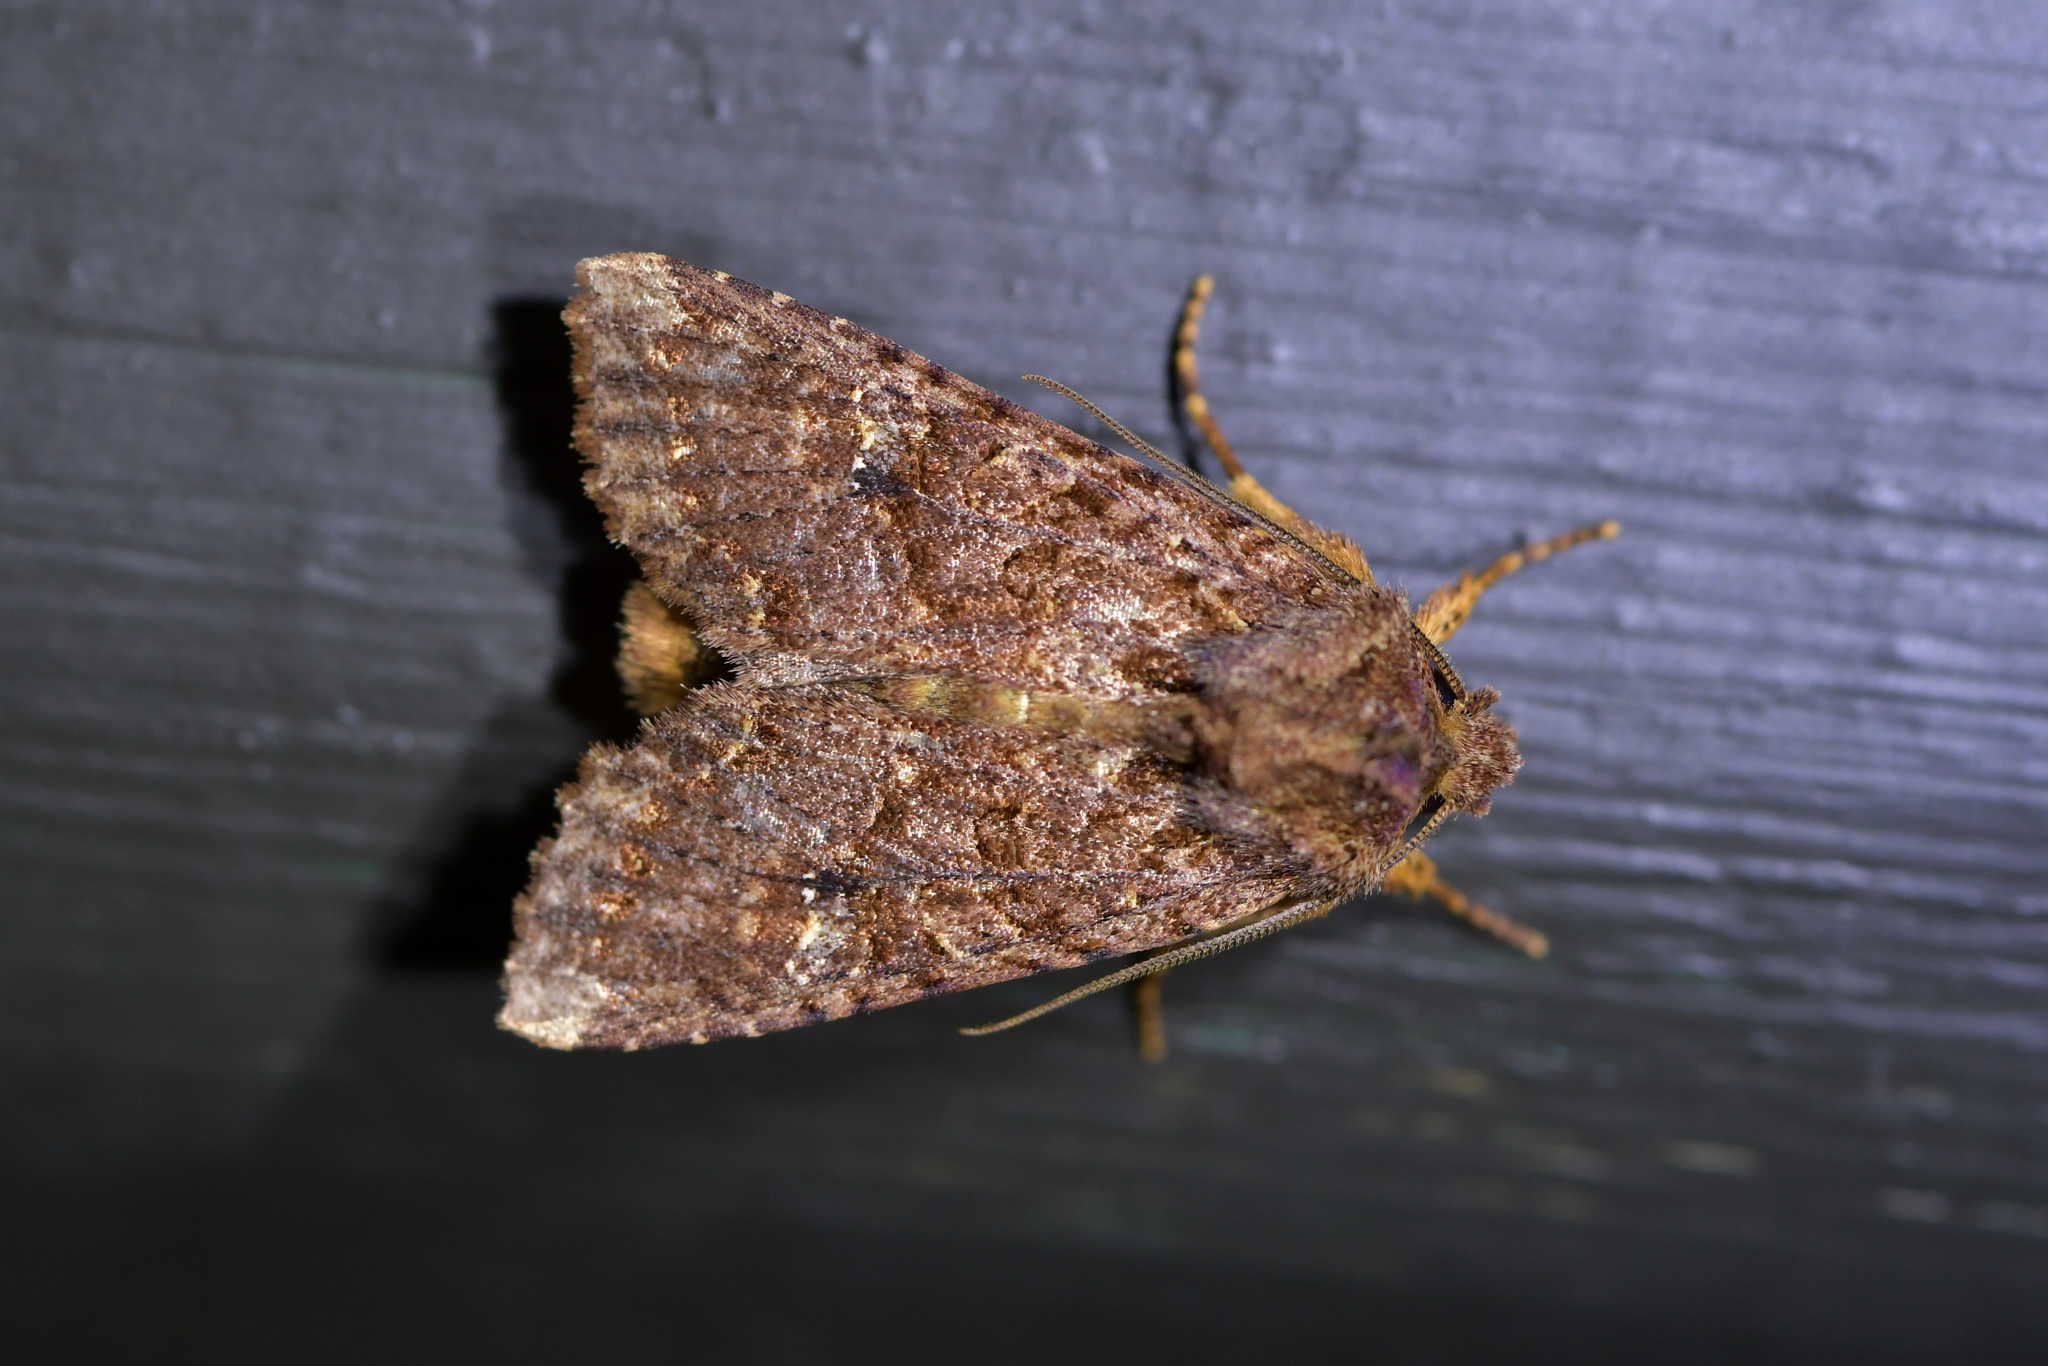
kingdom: Animalia
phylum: Arthropoda
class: Insecta
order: Lepidoptera
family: Noctuidae
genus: Meterana
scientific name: Meterana
